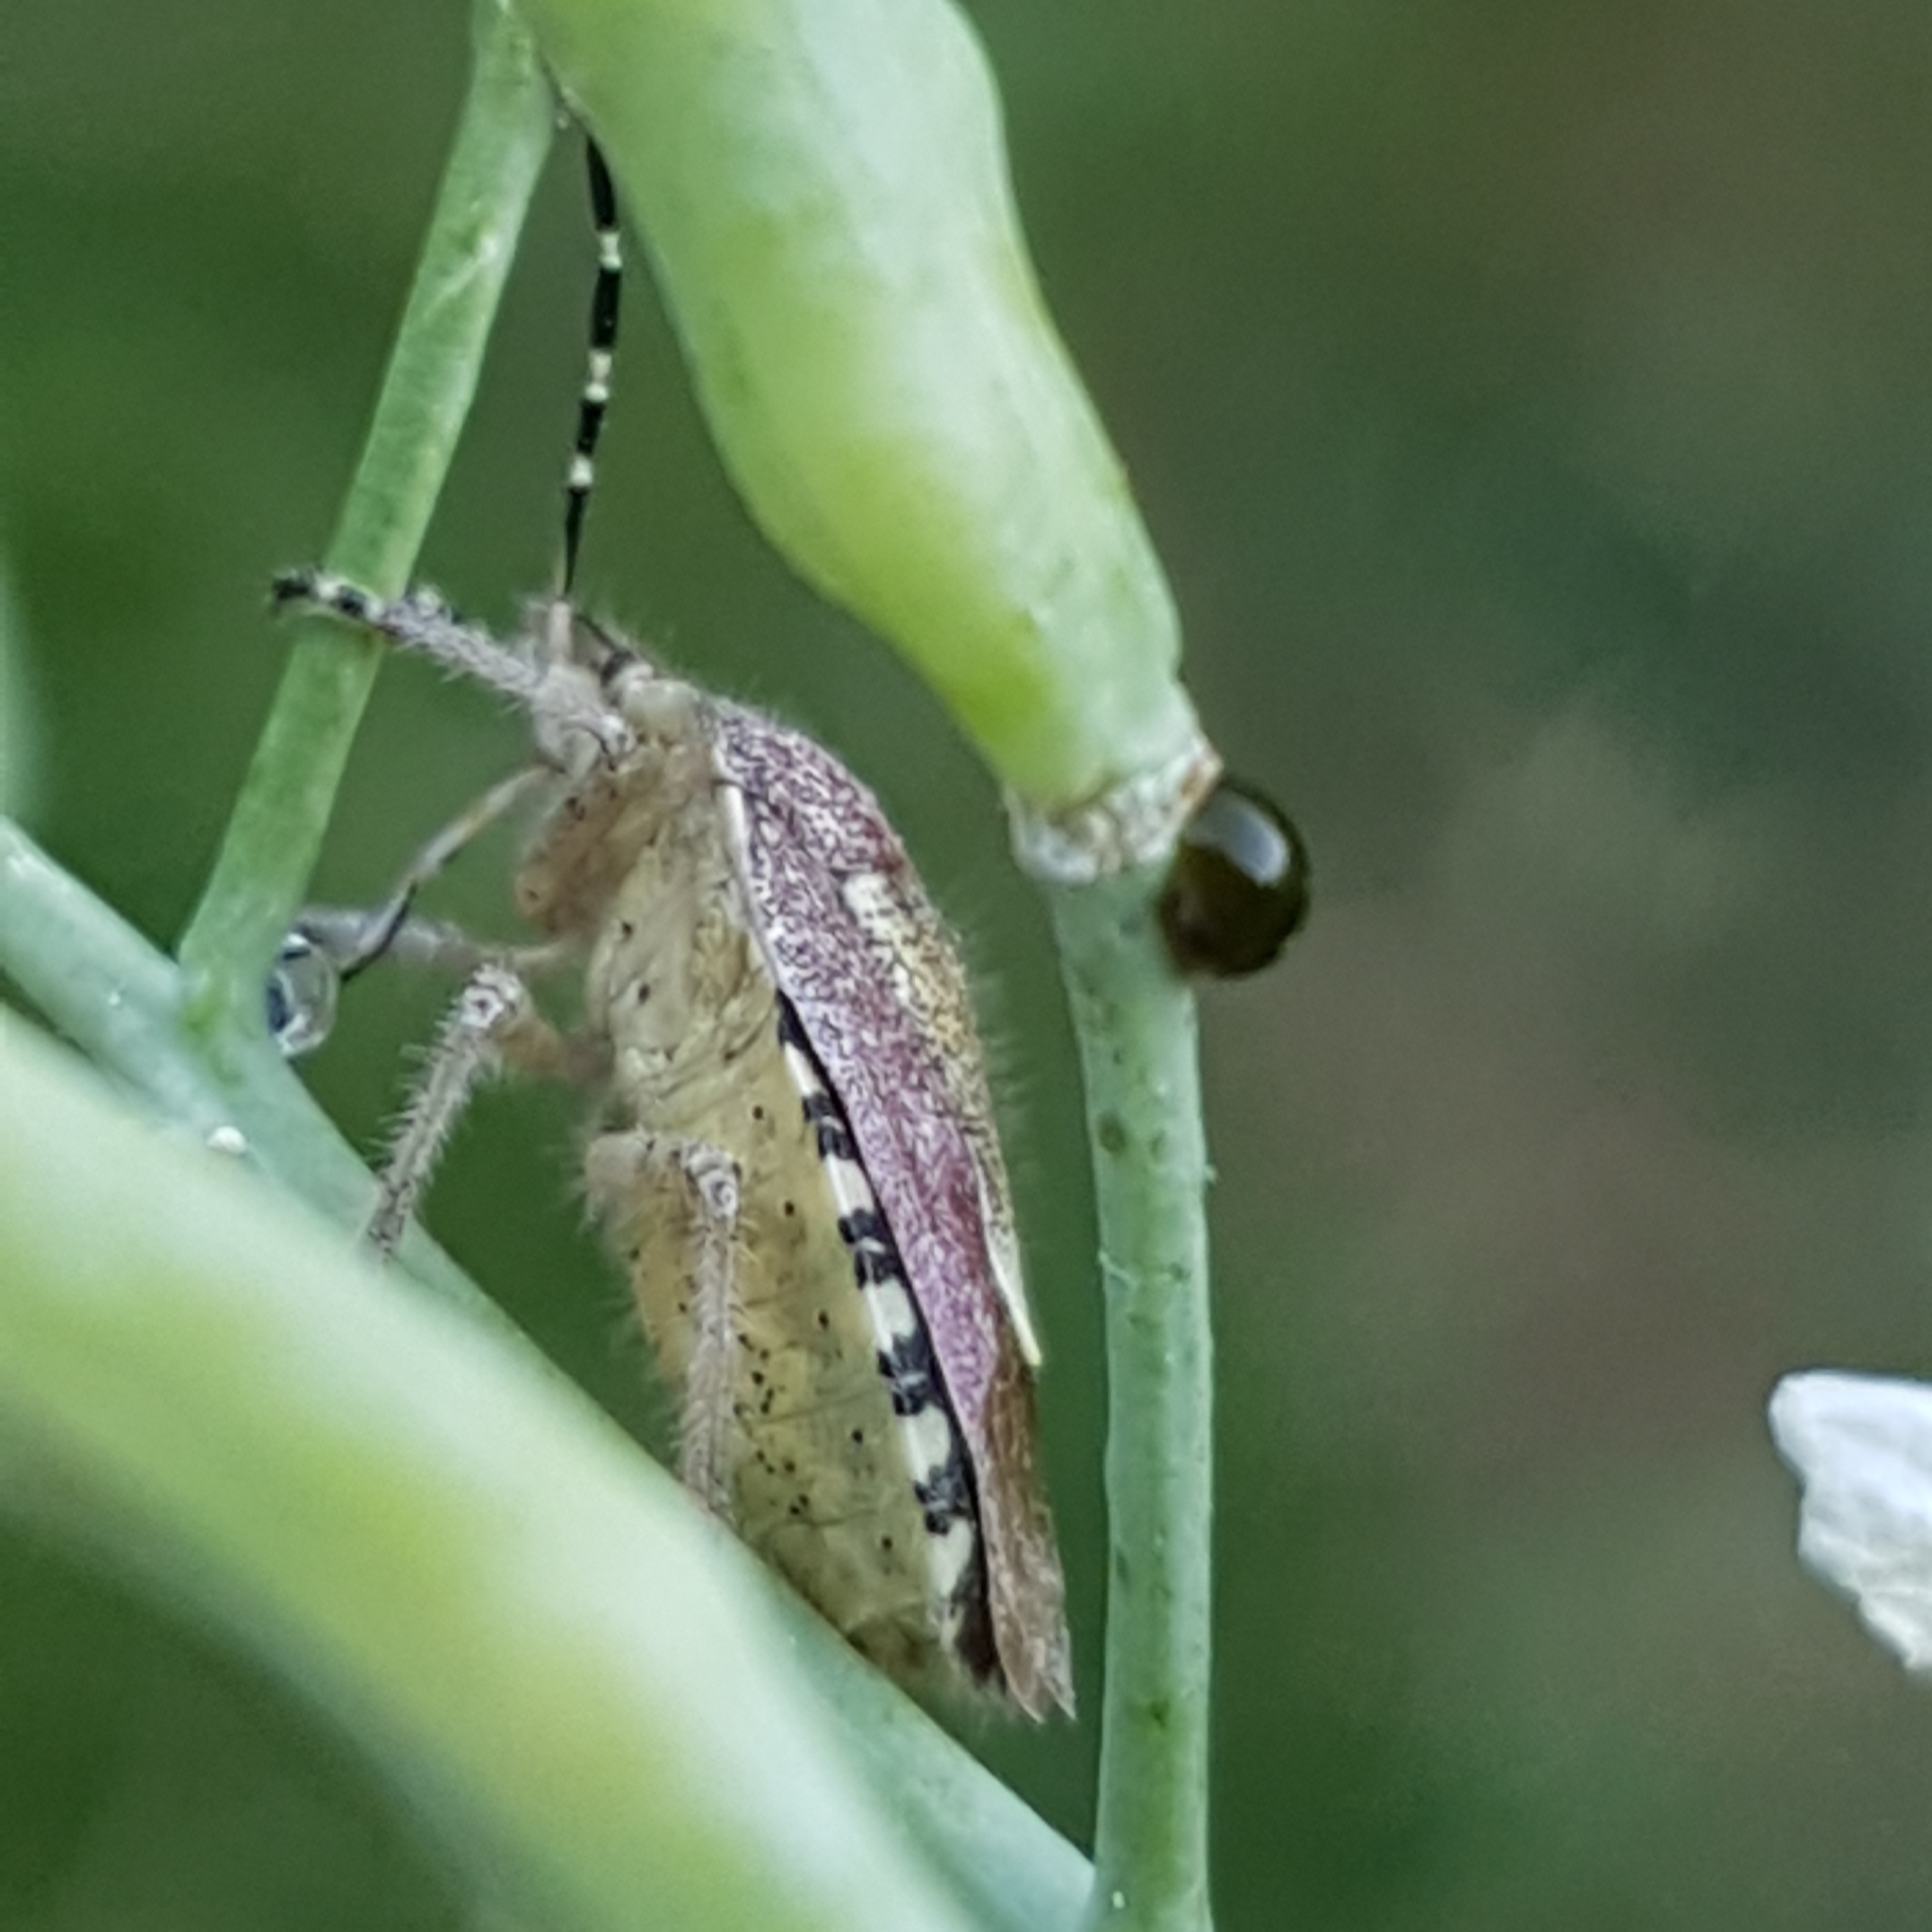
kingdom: Animalia
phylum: Arthropoda
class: Insecta
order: Hemiptera
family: Pentatomidae
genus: Dolycoris
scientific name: Dolycoris baccarum
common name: Sloe bug
